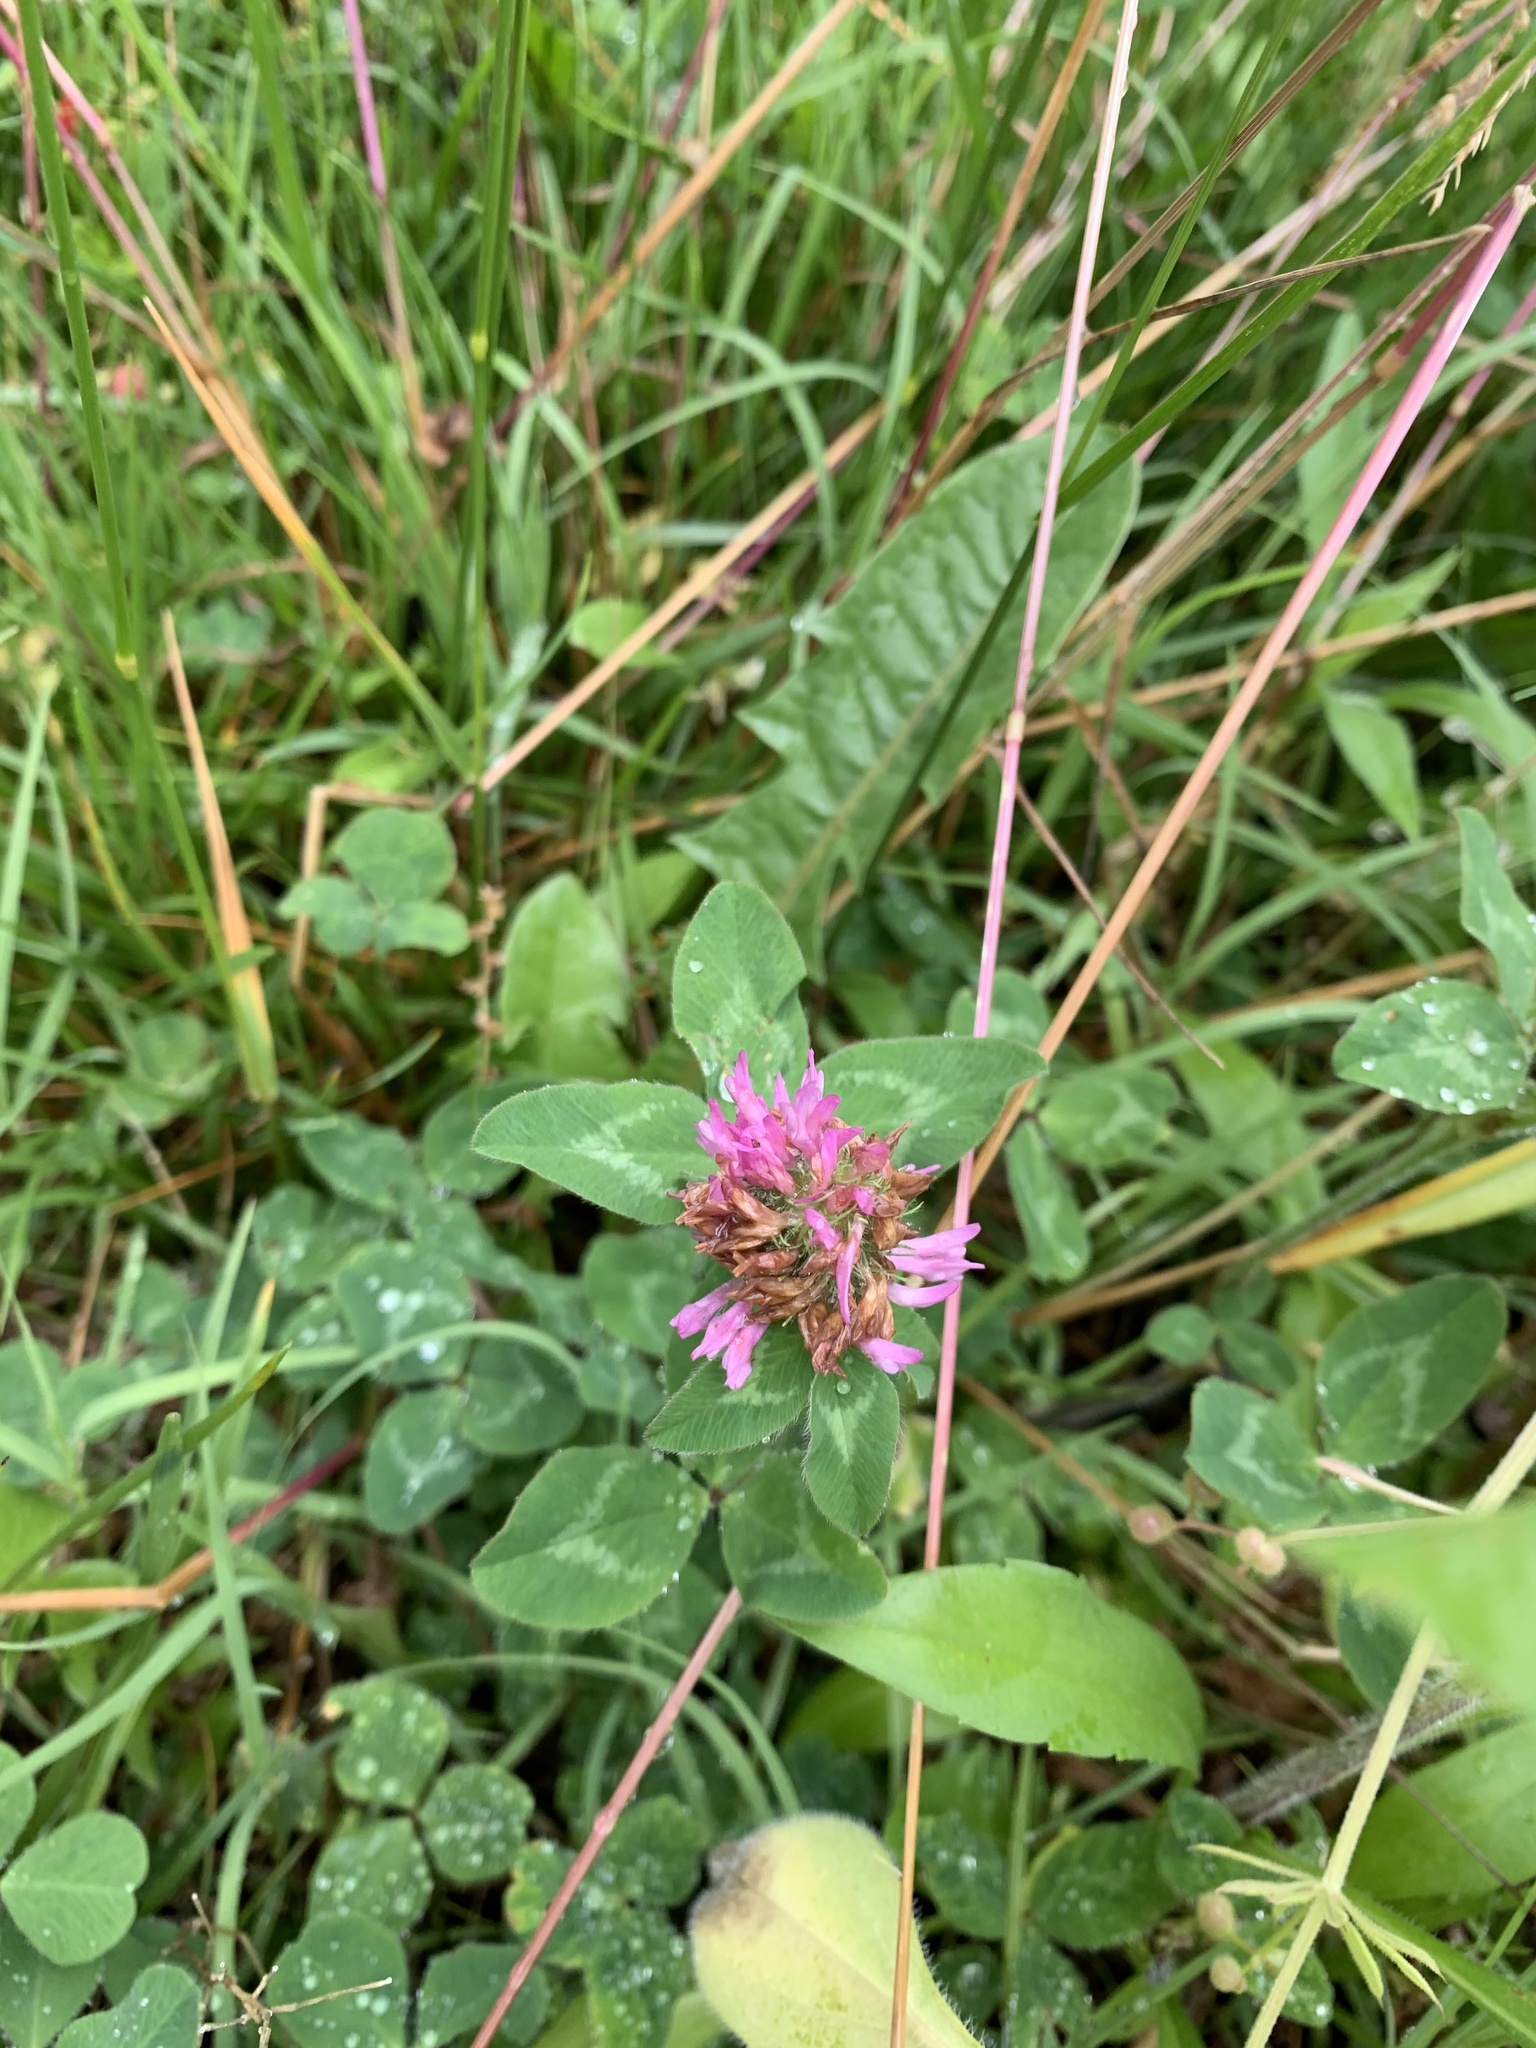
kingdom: Plantae
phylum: Tracheophyta
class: Magnoliopsida
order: Fabales
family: Fabaceae
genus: Trifolium
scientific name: Trifolium pratense
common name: Red clover
